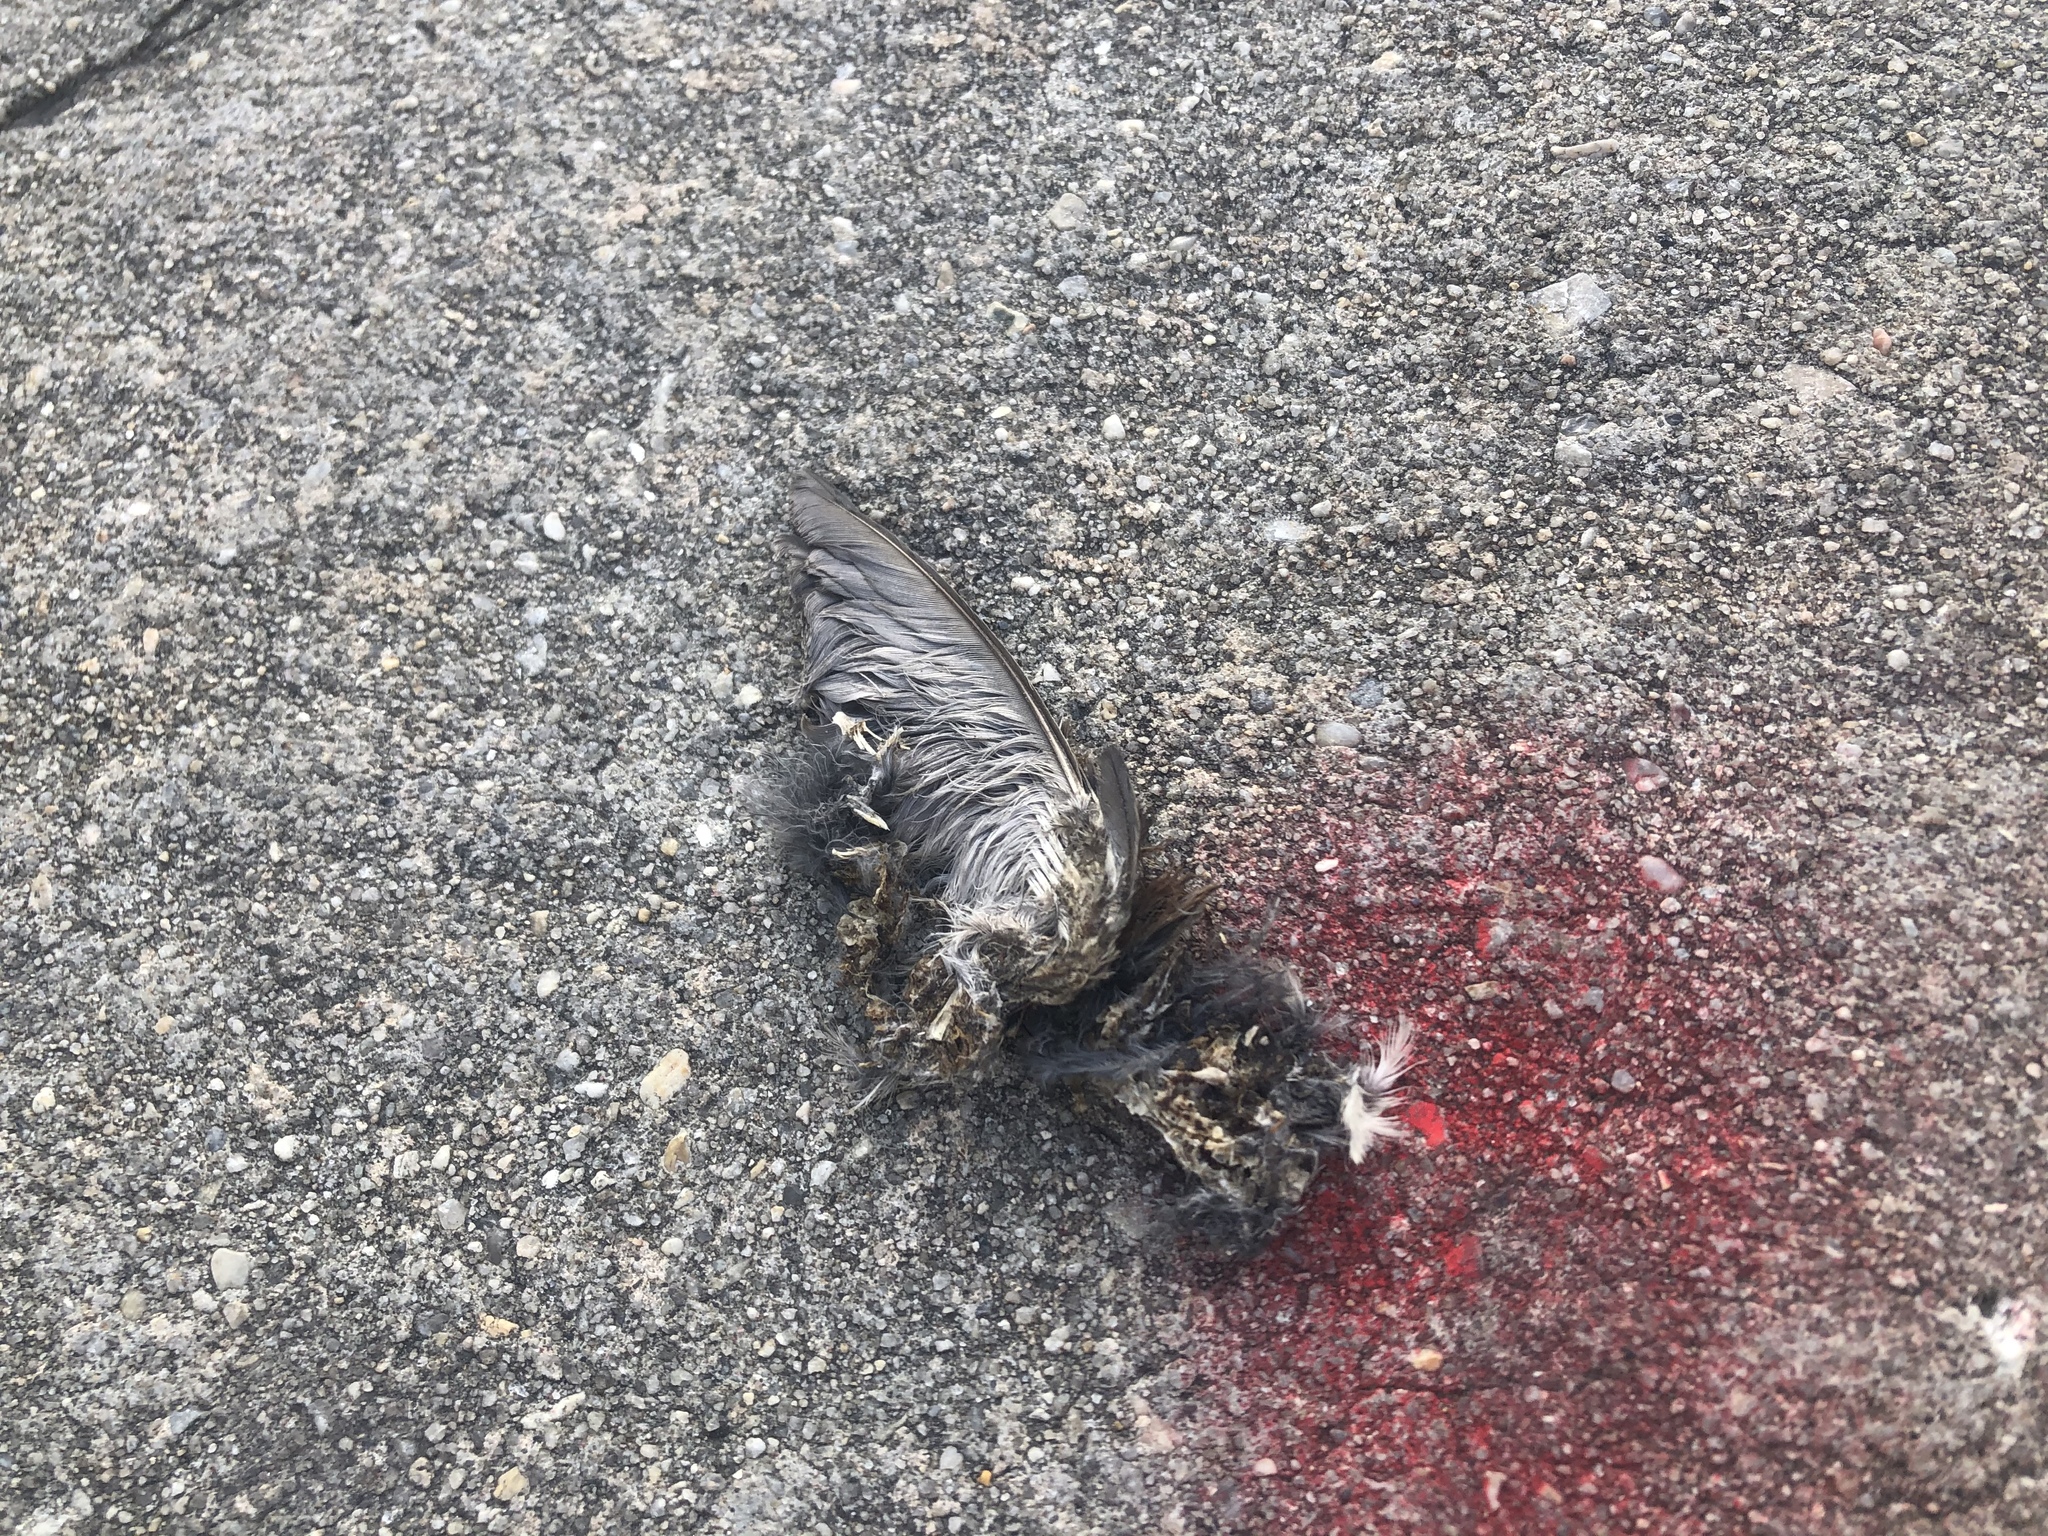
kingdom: Animalia
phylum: Chordata
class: Aves
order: Passeriformes
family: Sturnidae
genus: Sturnus
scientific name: Sturnus vulgaris
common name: Common starling
